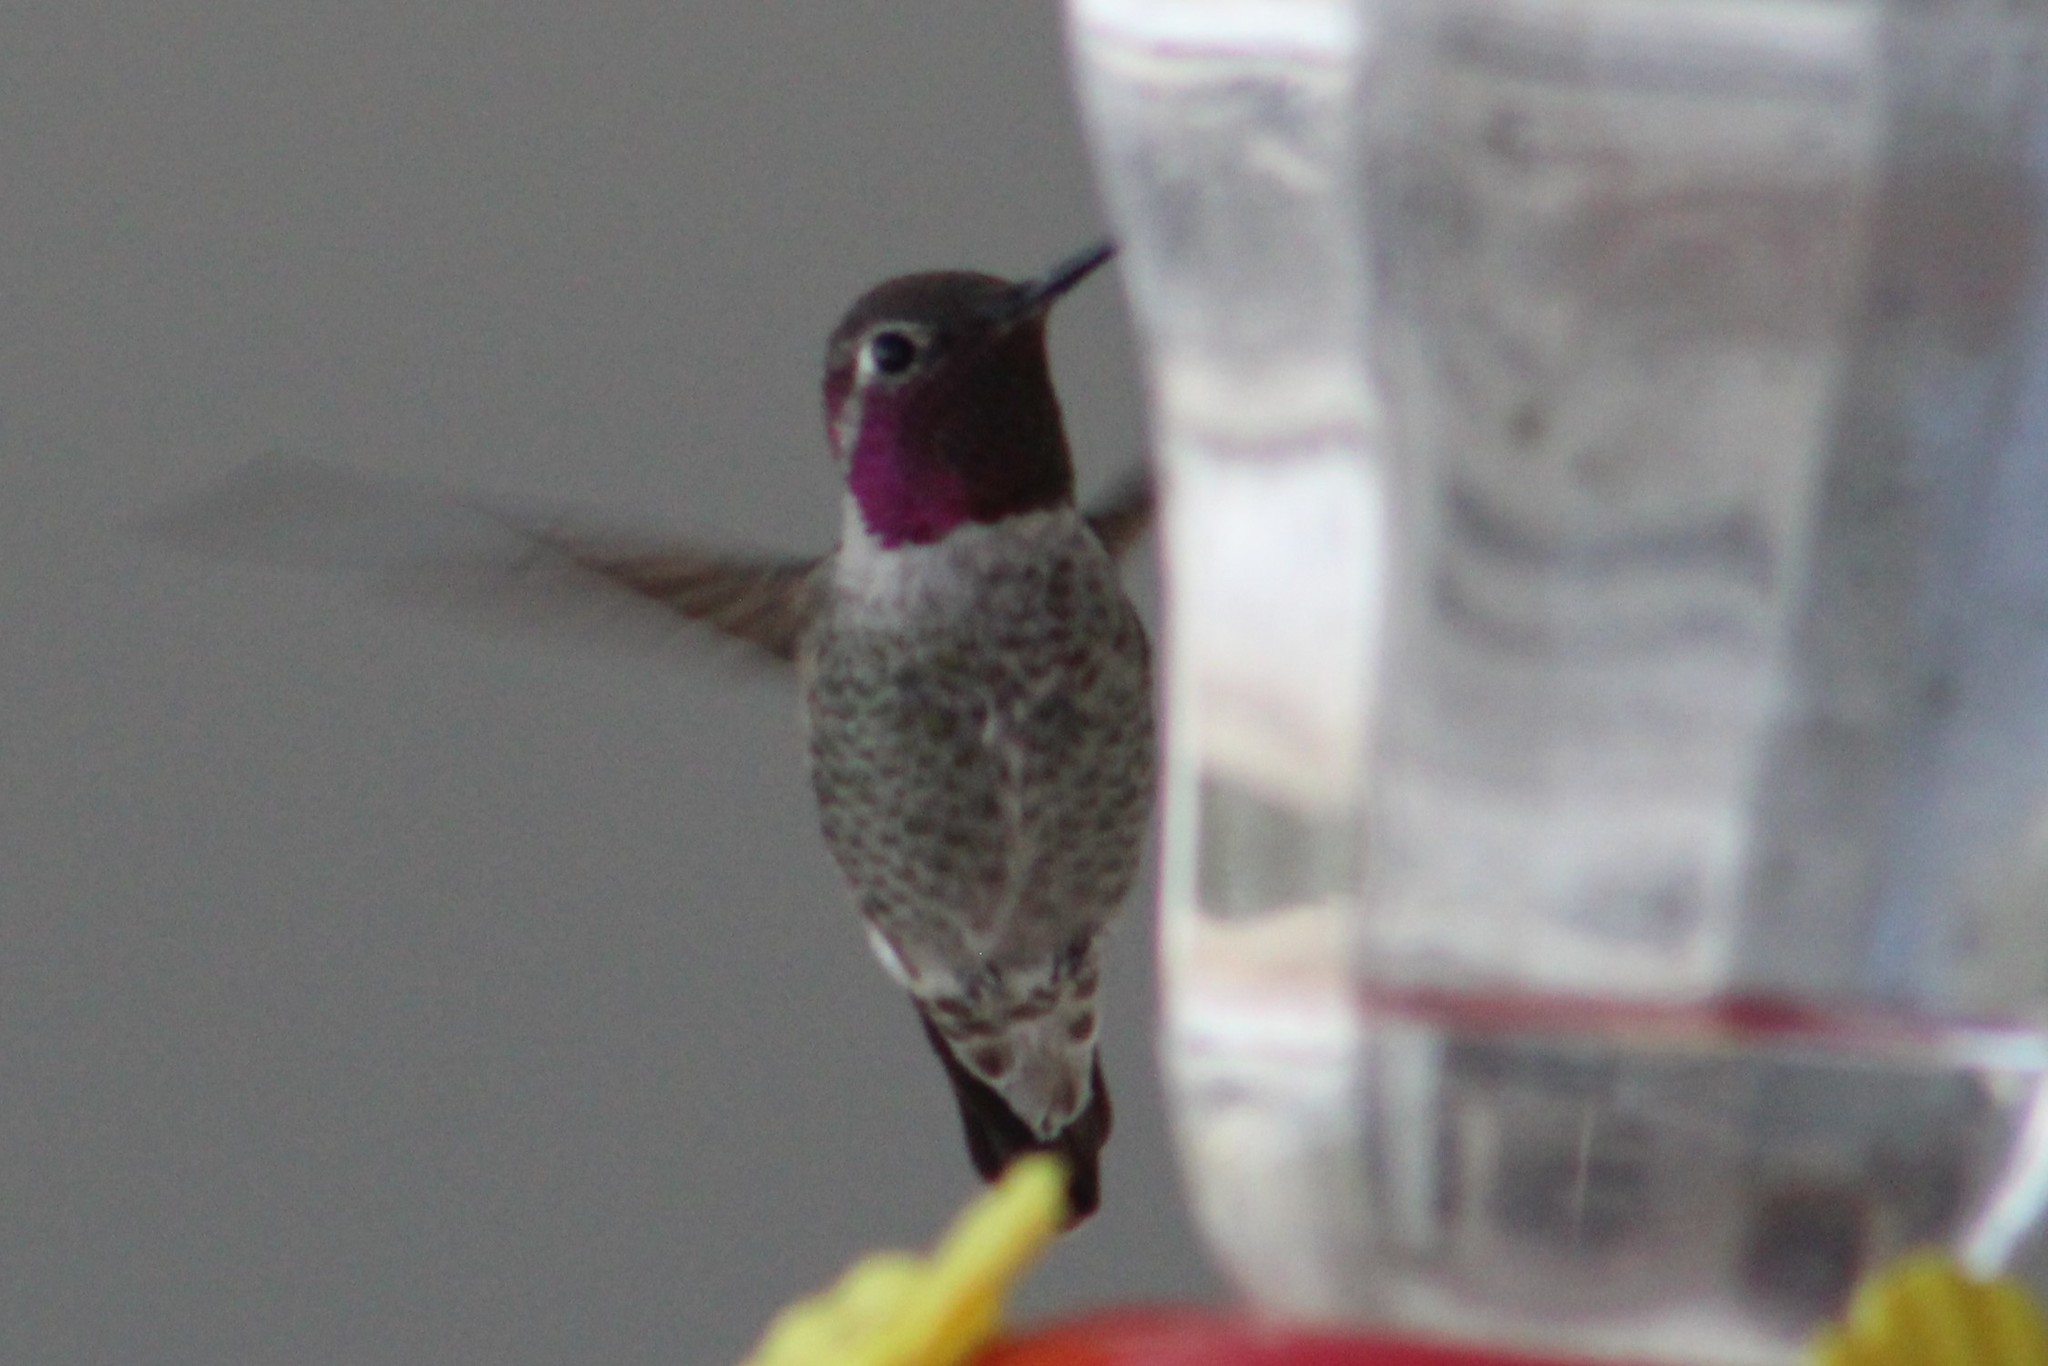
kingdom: Animalia
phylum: Chordata
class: Aves
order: Apodiformes
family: Trochilidae
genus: Calypte
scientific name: Calypte anna
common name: Anna's hummingbird
